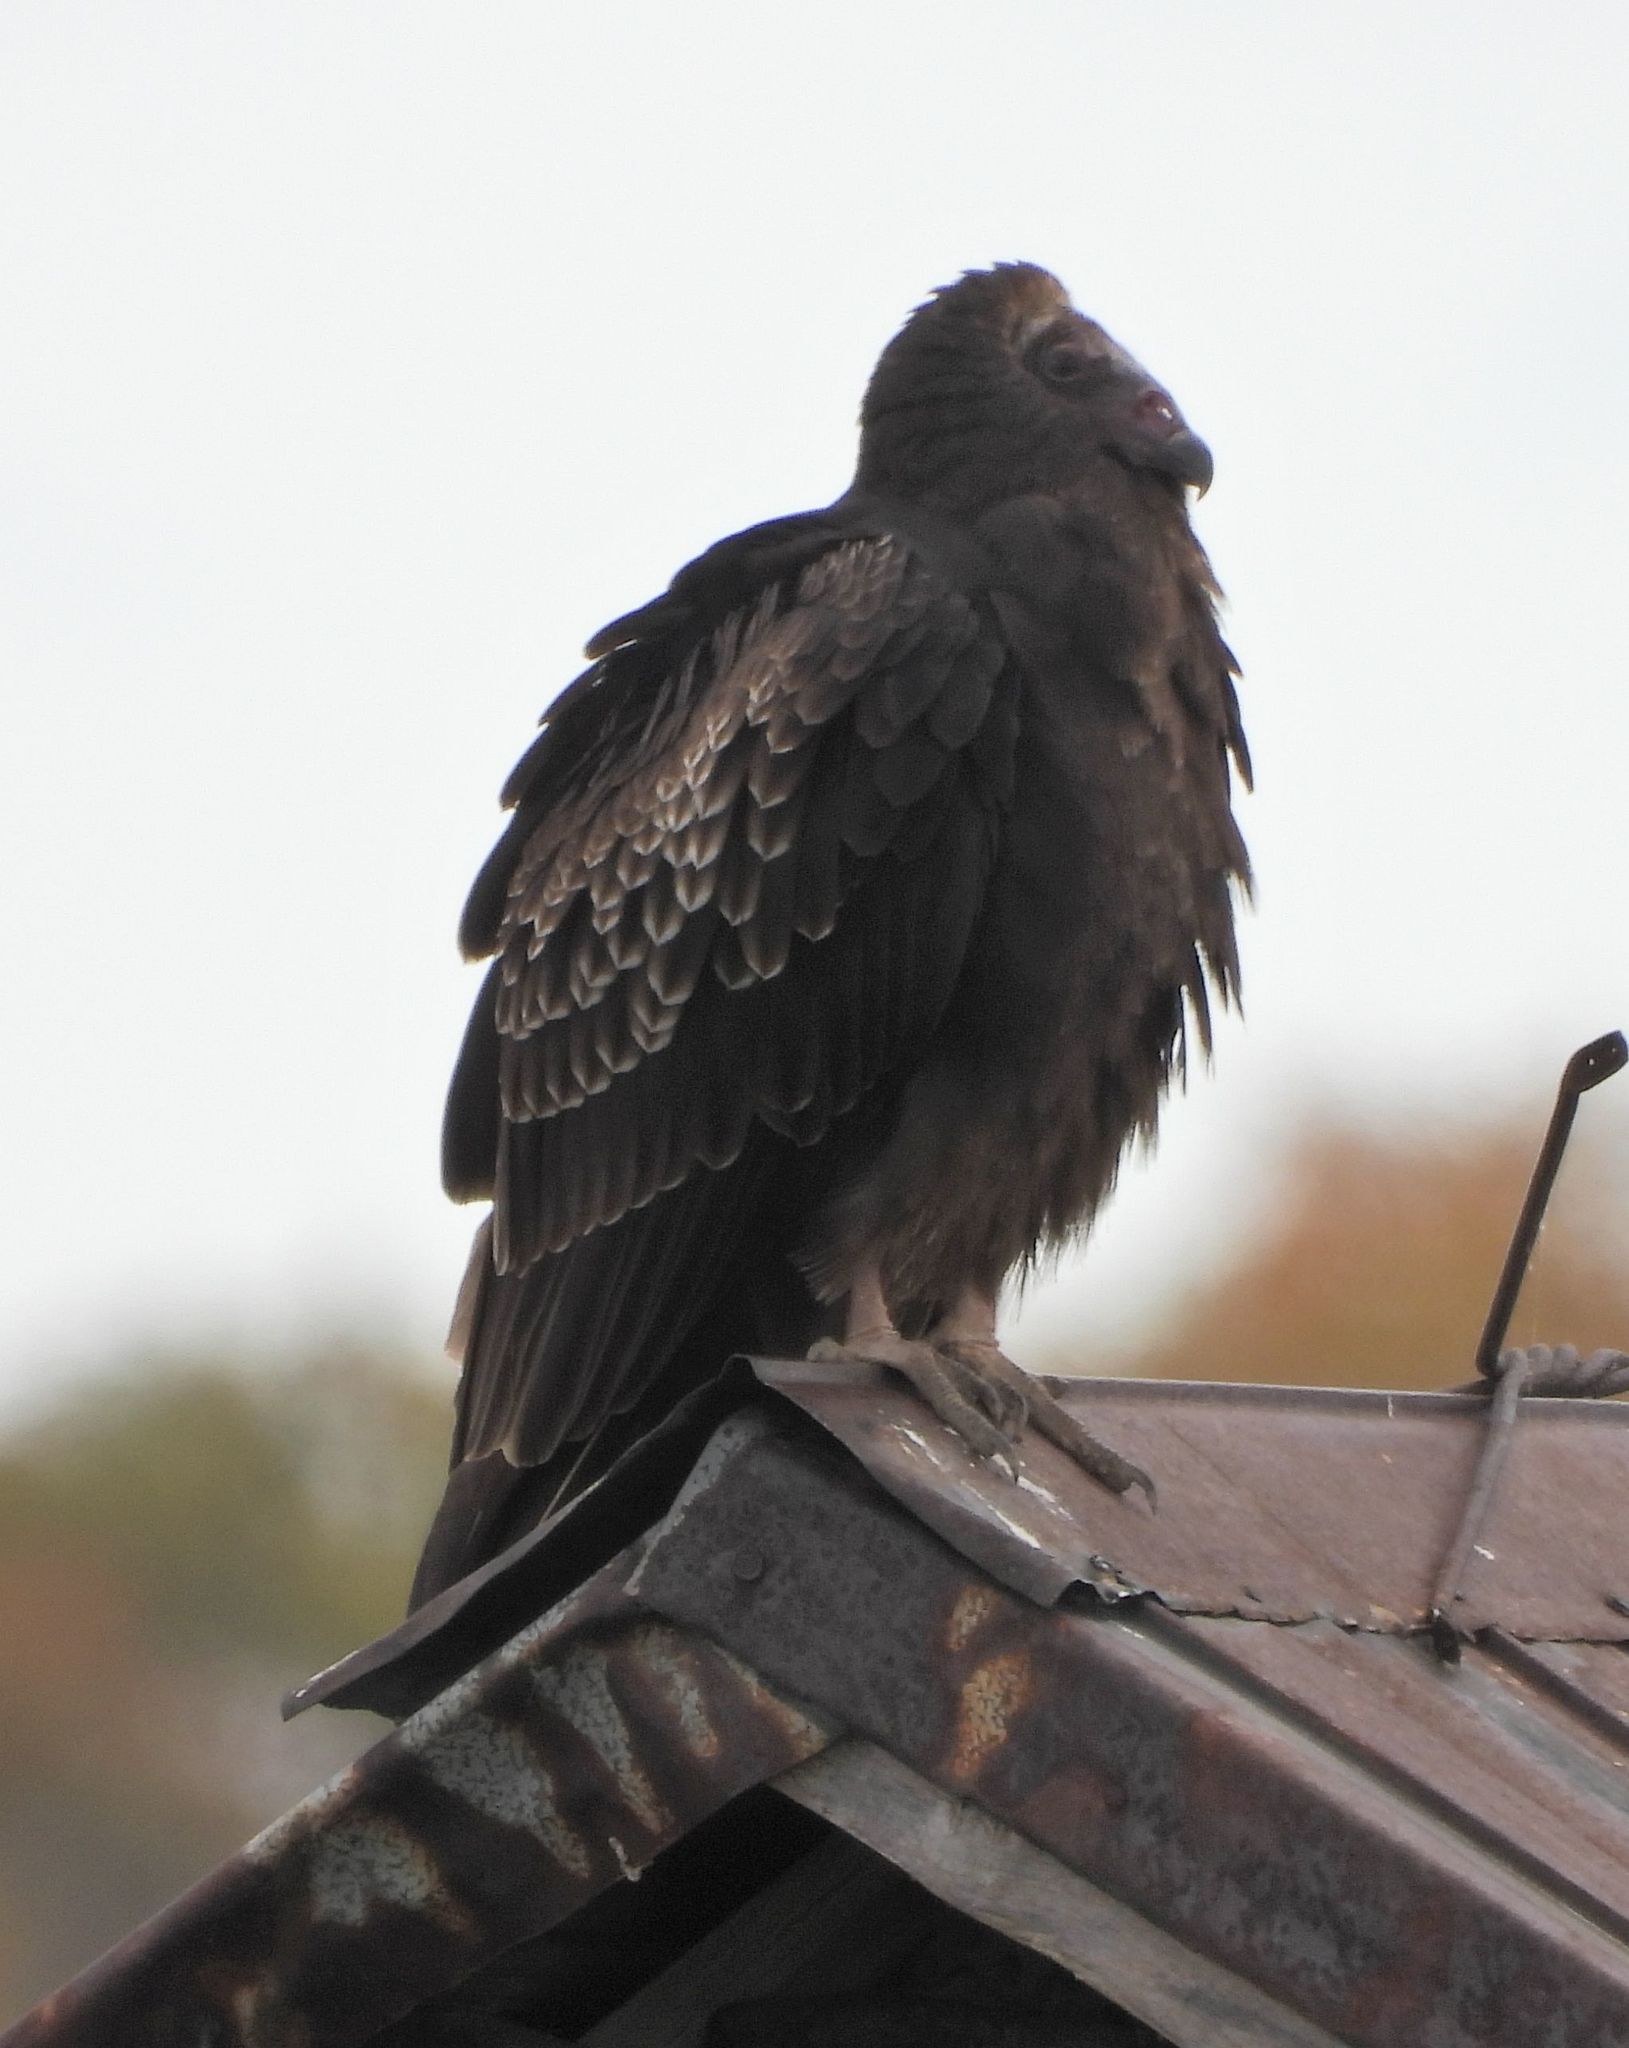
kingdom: Animalia
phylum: Chordata
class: Aves
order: Accipitriformes
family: Cathartidae
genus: Cathartes
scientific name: Cathartes aura
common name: Turkey vulture
